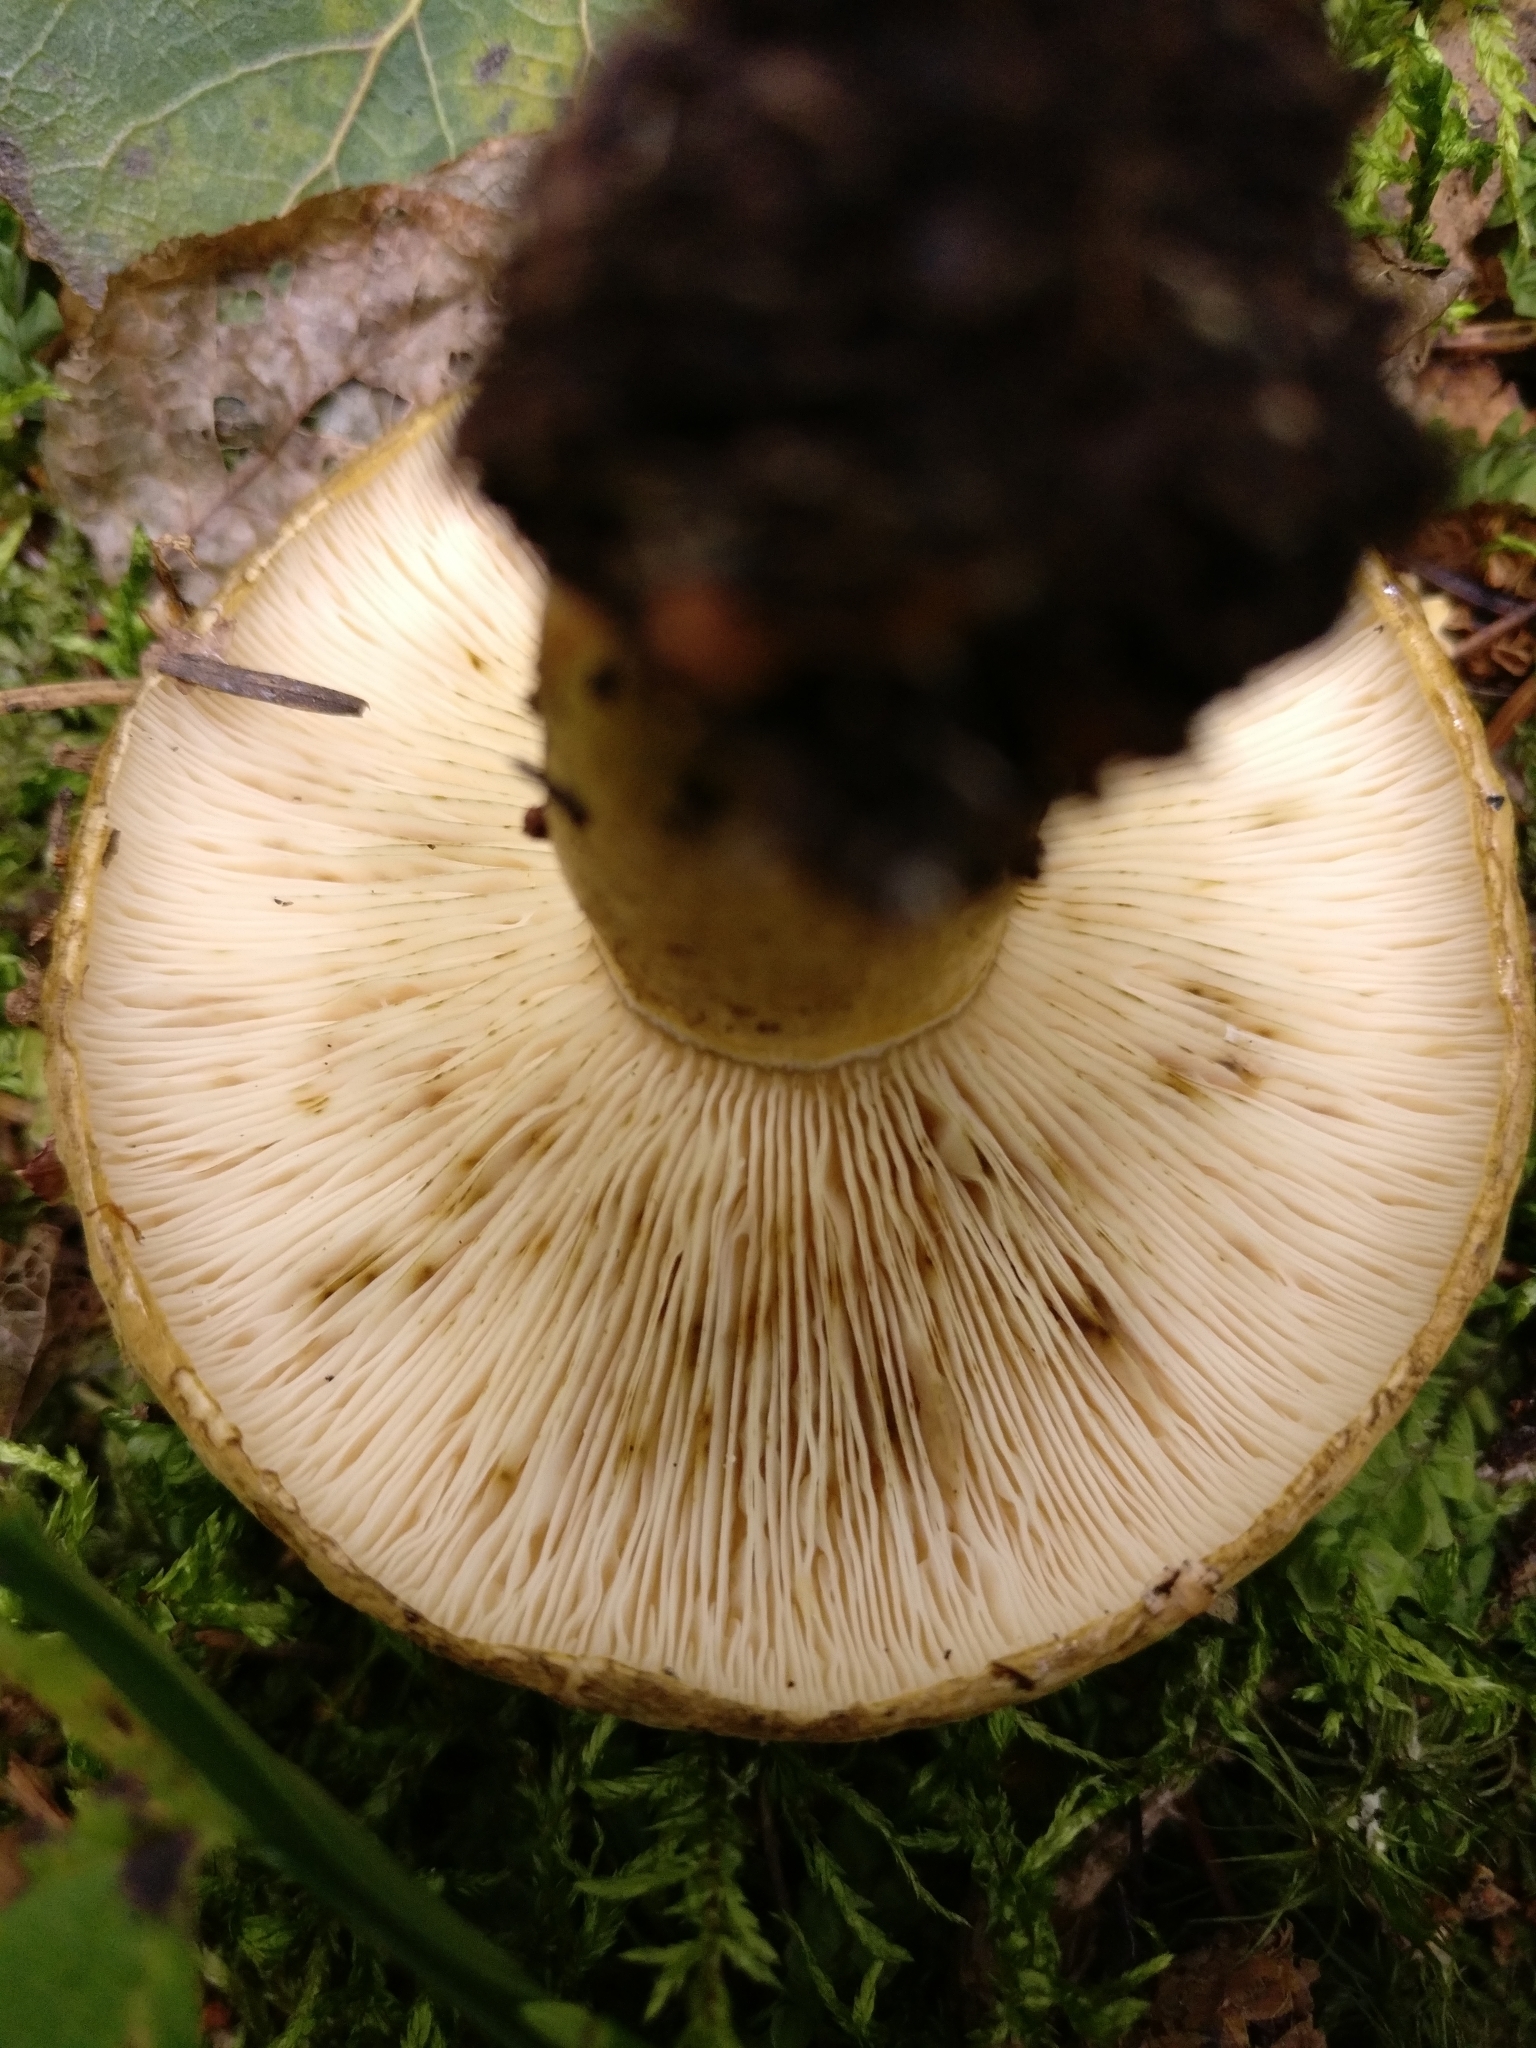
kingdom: Fungi
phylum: Basidiomycota
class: Agaricomycetes
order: Russulales
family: Russulaceae
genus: Lactarius
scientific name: Lactarius turpis
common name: Ugly milk-cap
